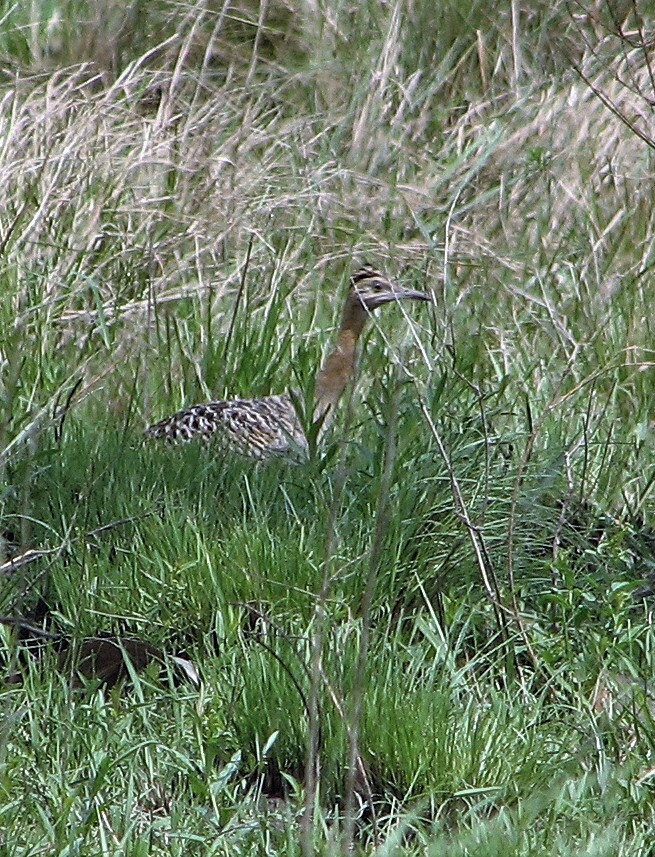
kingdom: Animalia
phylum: Chordata
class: Aves
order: Tinamiformes
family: Tinamidae
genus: Rhynchotus
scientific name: Rhynchotus rufescens
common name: Red-winged tinamou
